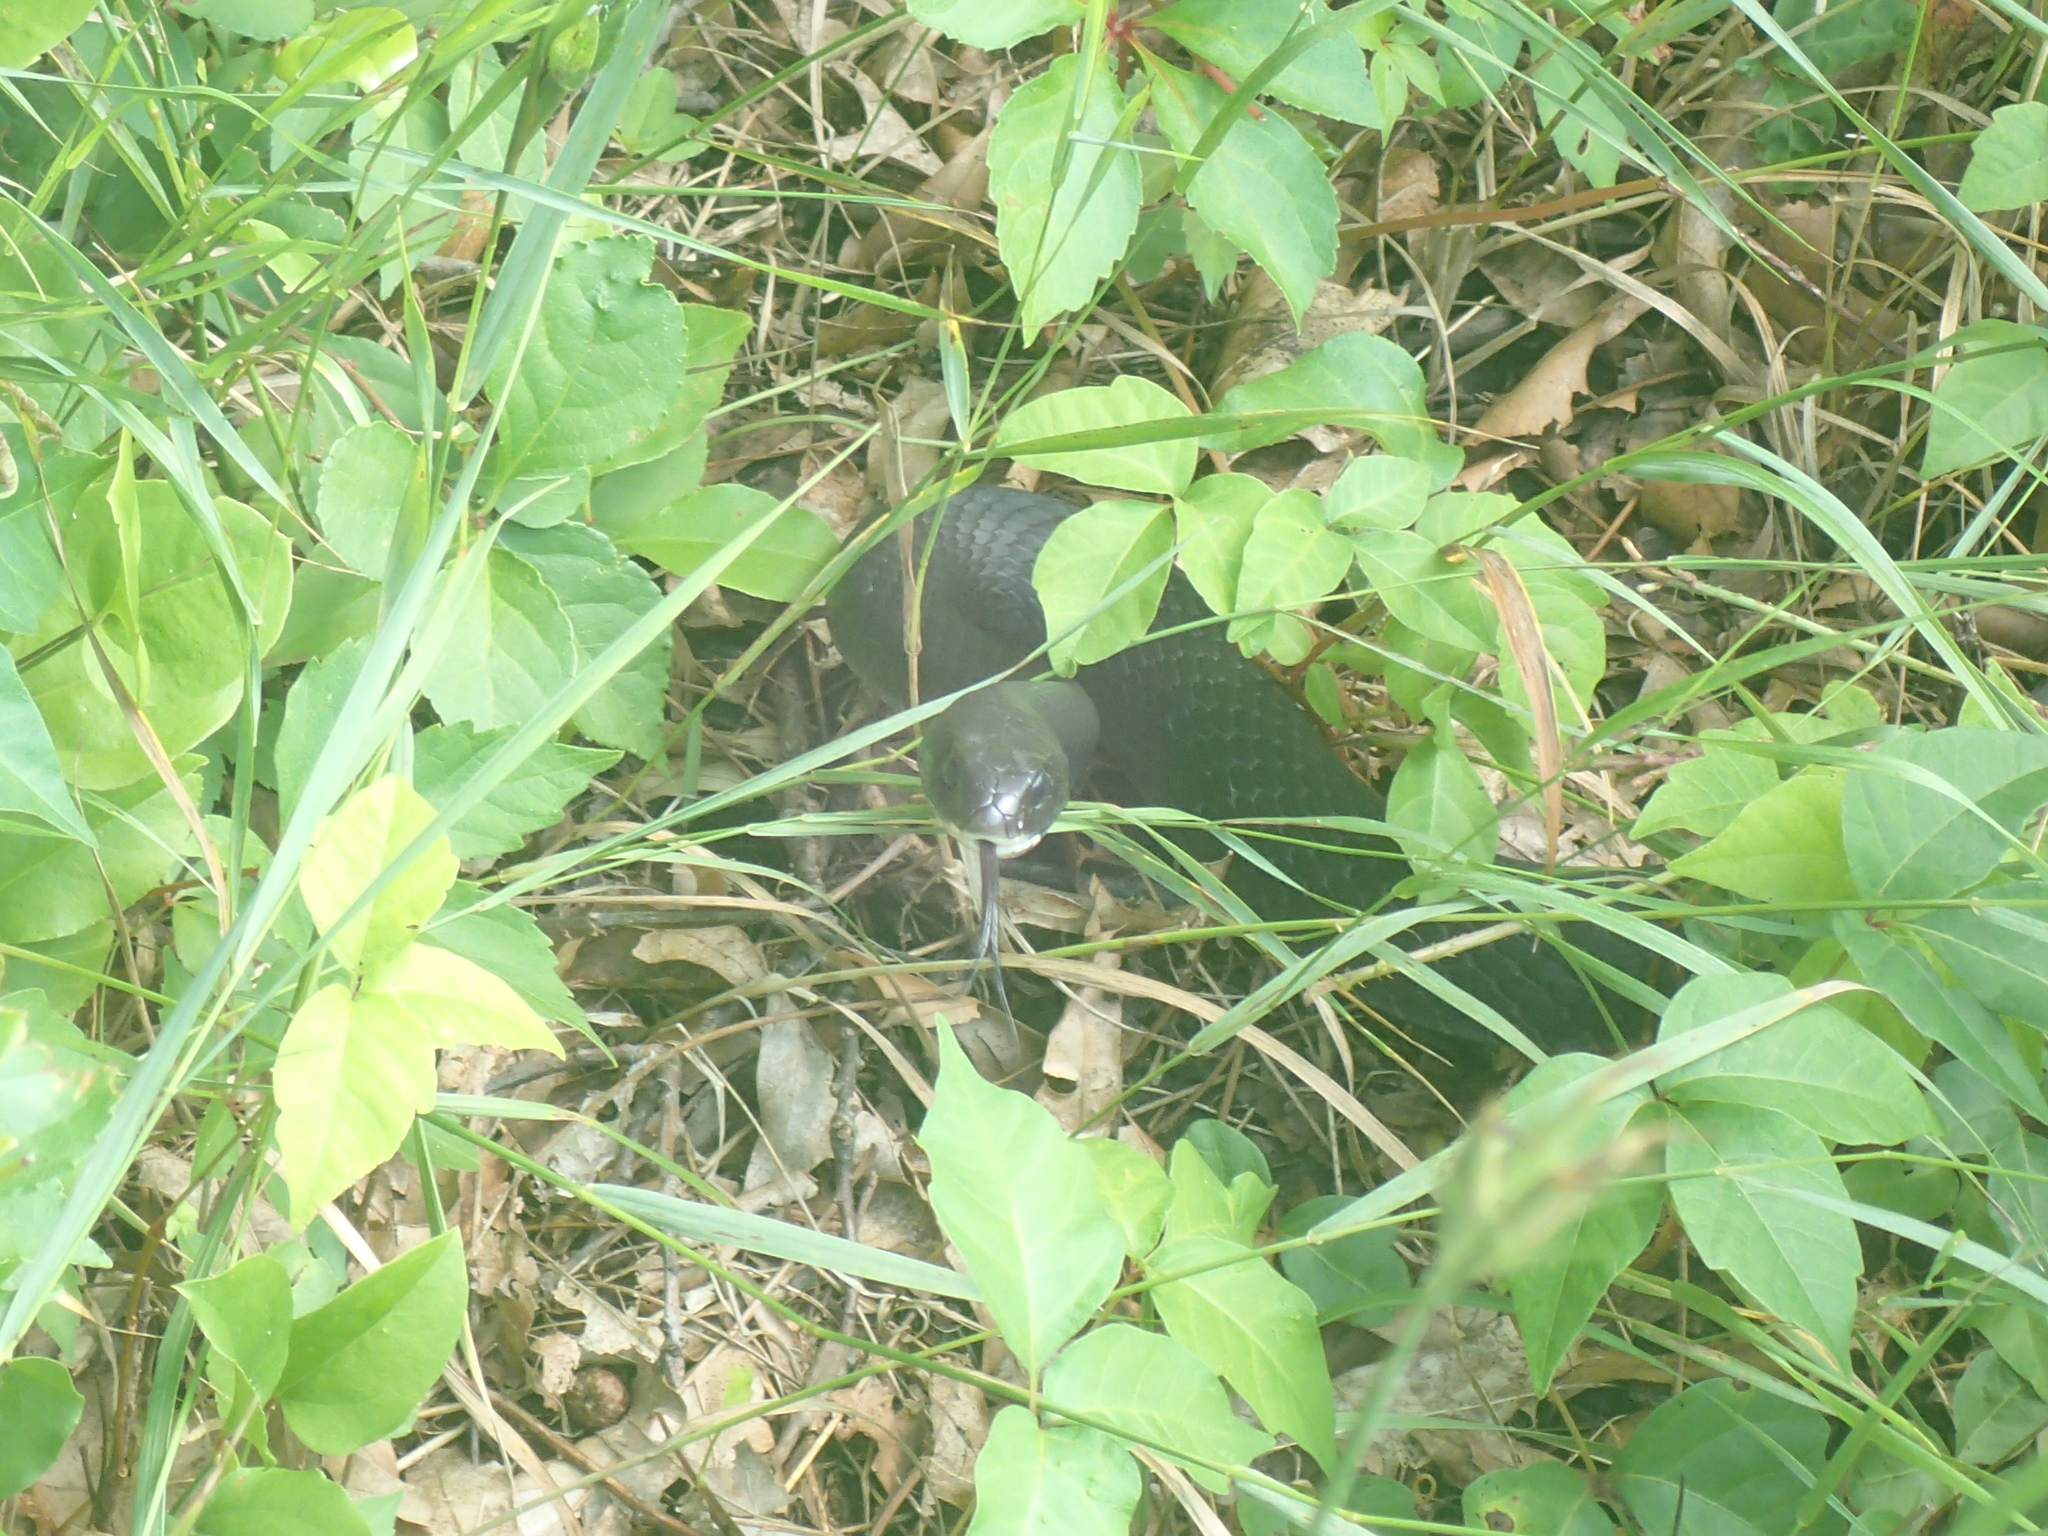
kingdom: Animalia
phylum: Chordata
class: Squamata
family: Colubridae
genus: Coluber
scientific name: Coluber constrictor
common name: Eastern racer
